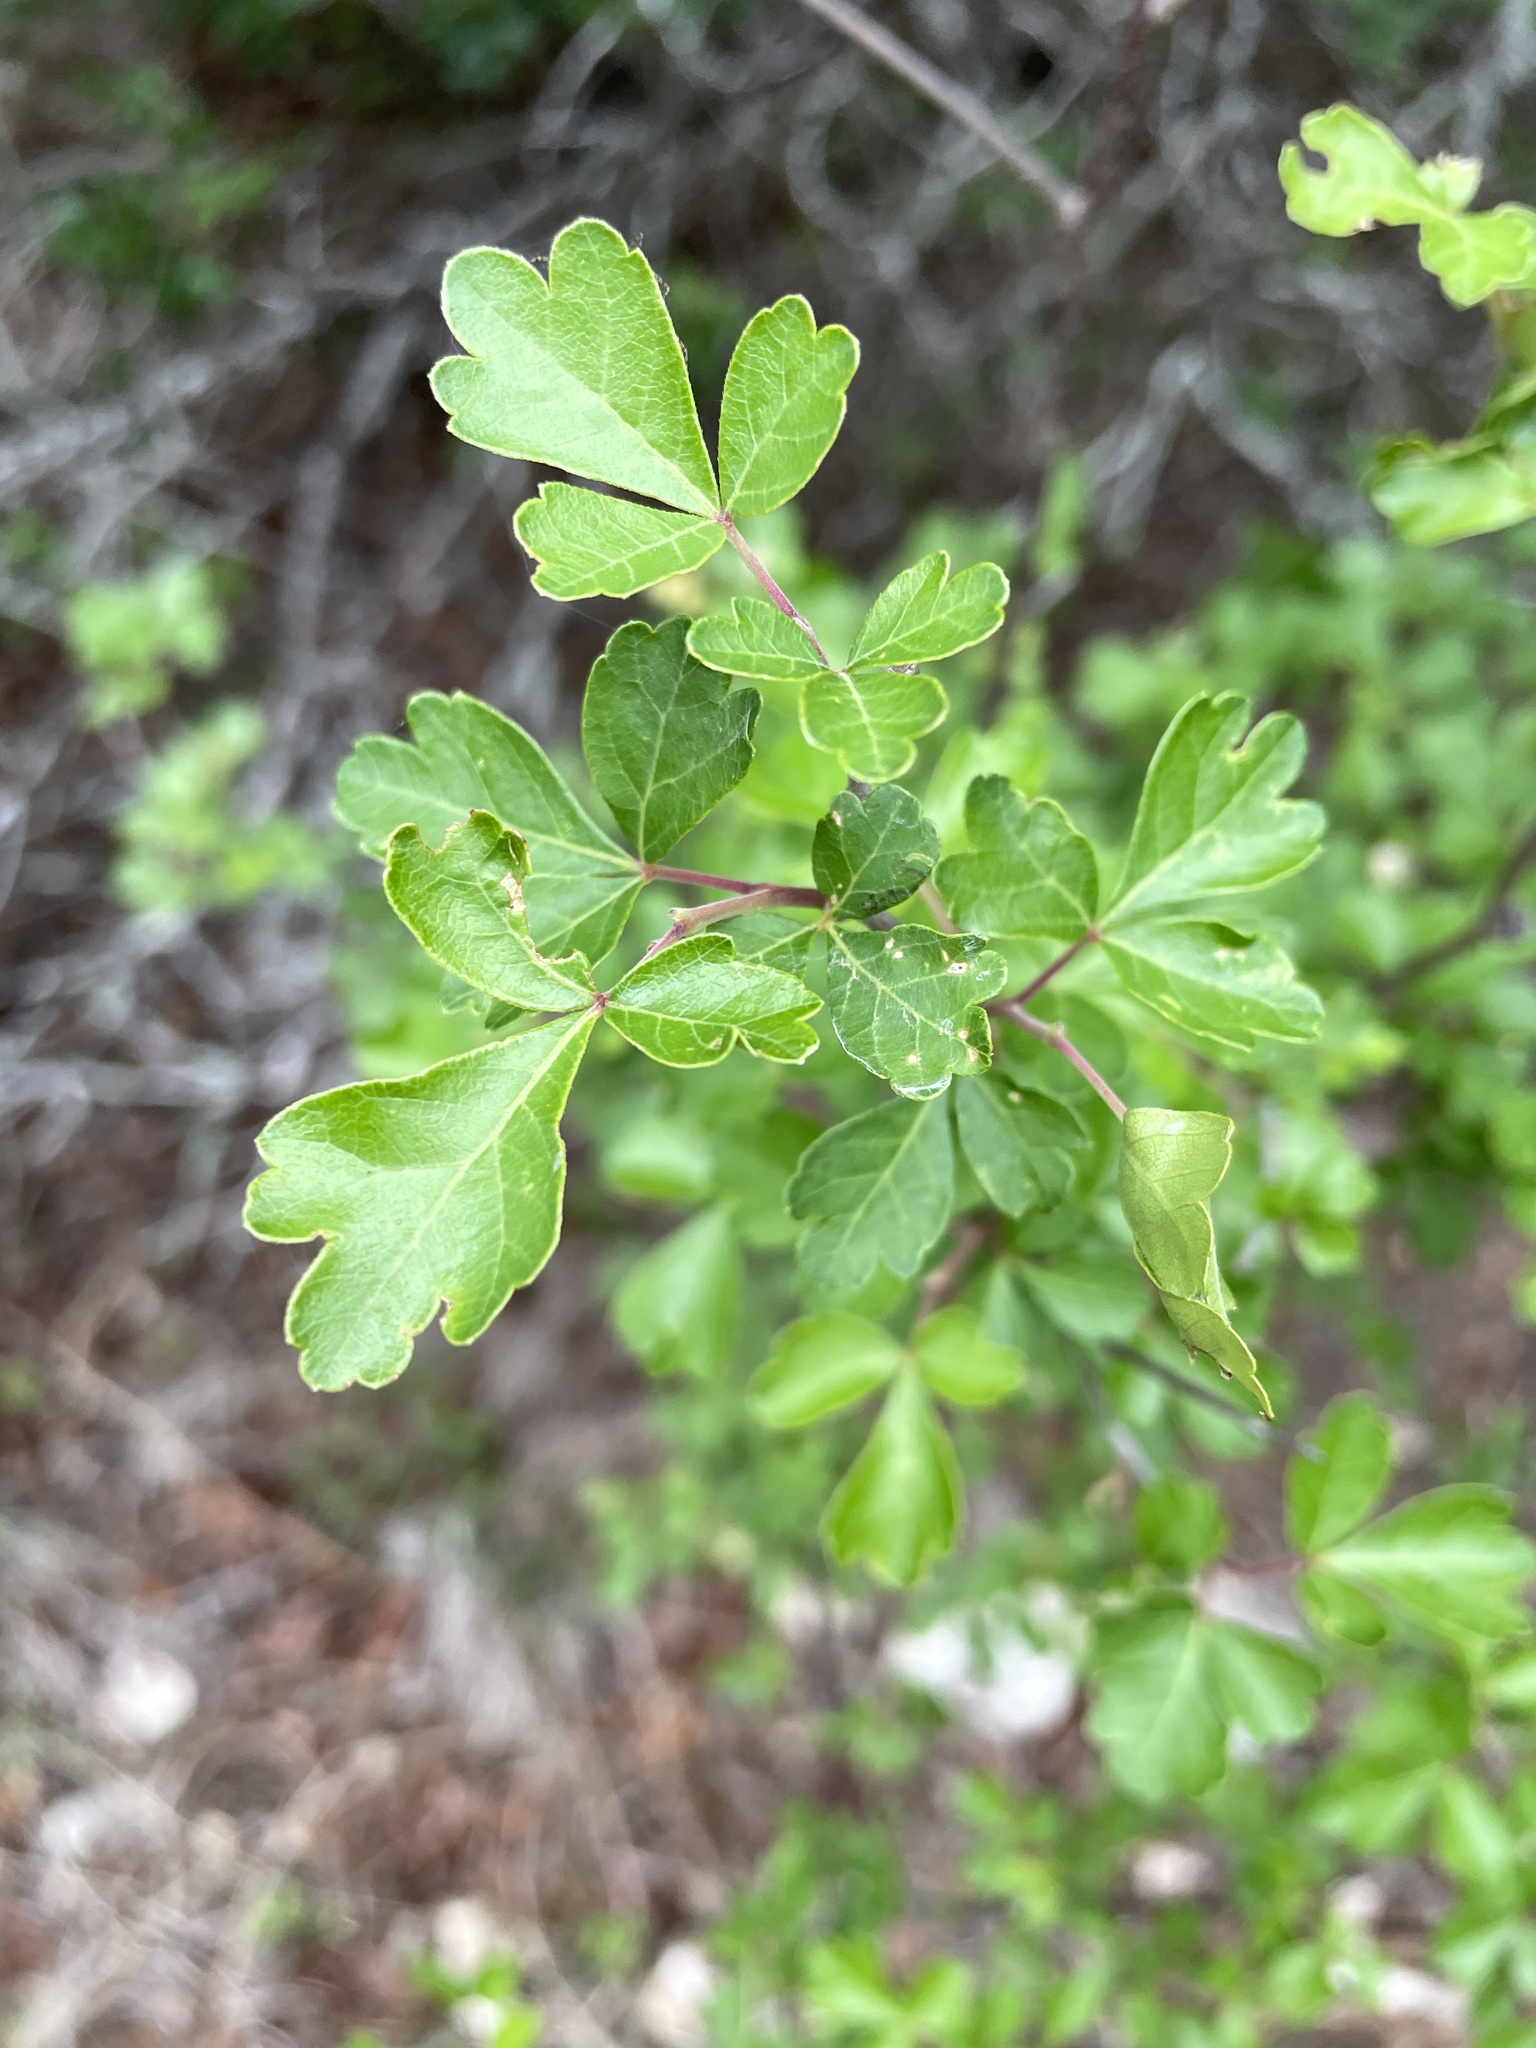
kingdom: Plantae
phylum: Tracheophyta
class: Magnoliopsida
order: Sapindales
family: Anacardiaceae
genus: Rhus
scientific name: Rhus aromatica
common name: Aromatic sumac
